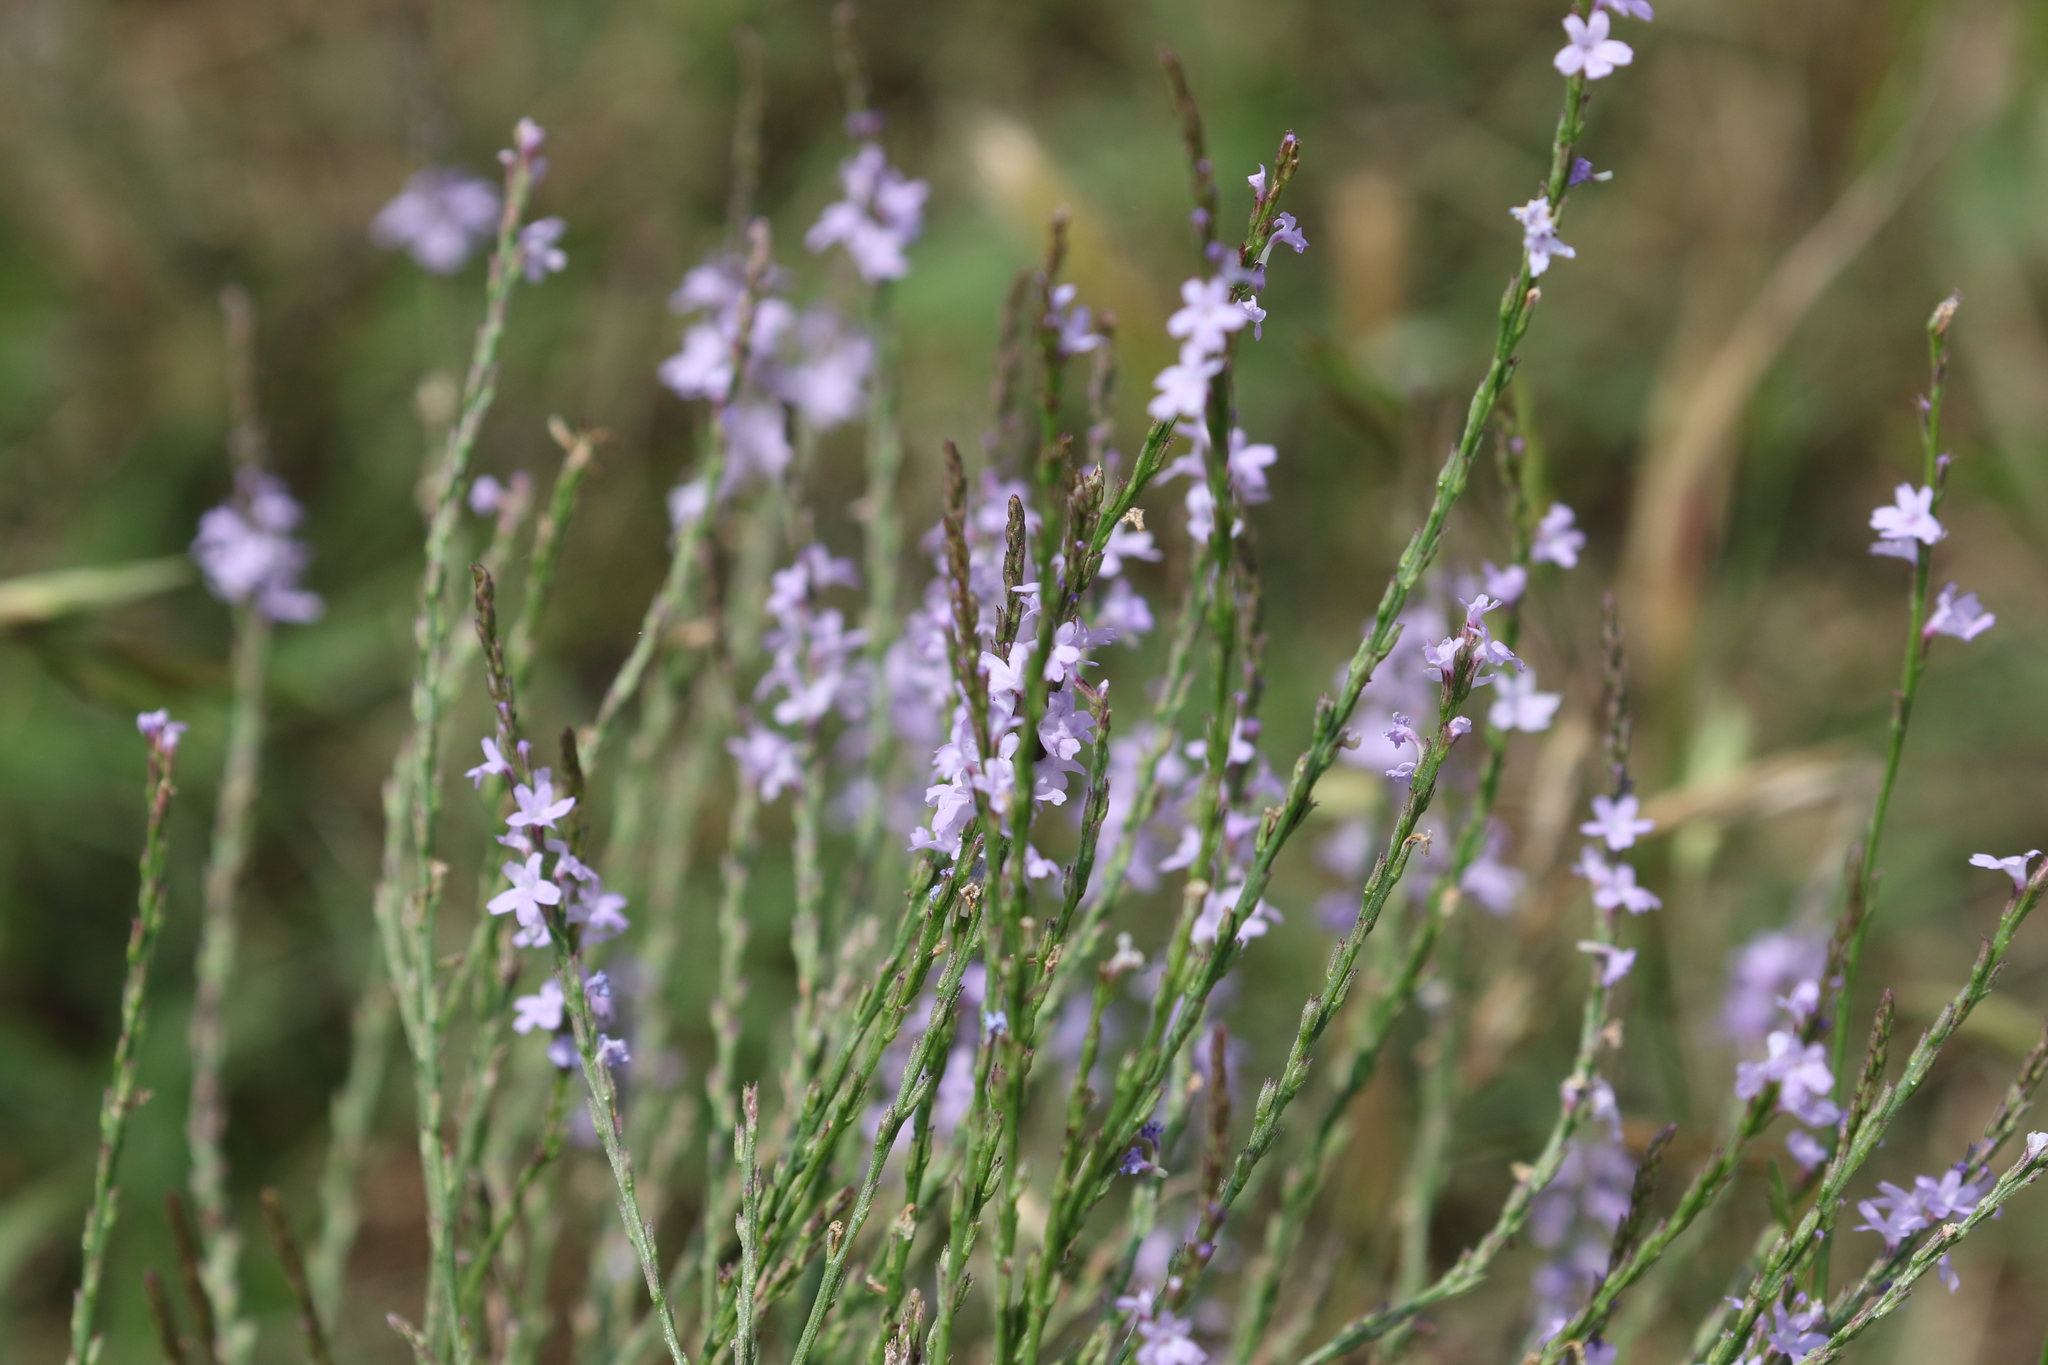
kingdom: Plantae
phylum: Tracheophyta
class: Magnoliopsida
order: Lamiales
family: Verbenaceae
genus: Verbena
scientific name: Verbena xutha
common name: Gulf vervain
